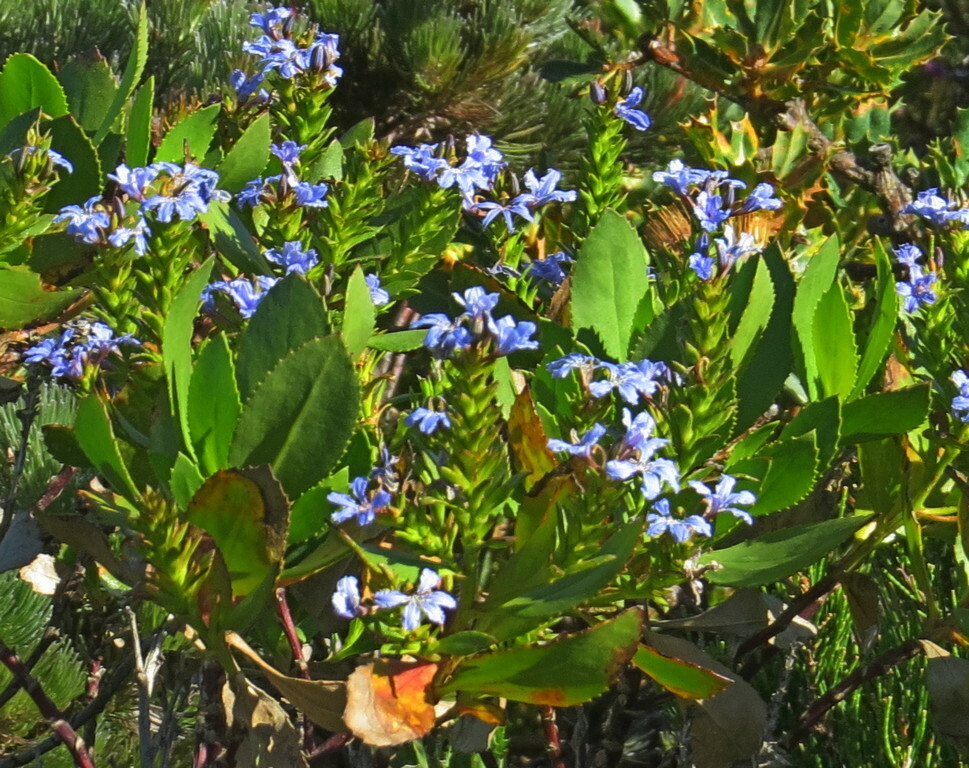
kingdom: Plantae
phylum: Tracheophyta
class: Magnoliopsida
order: Asterales
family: Goodeniaceae
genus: Scaevola
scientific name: Scaevola crassifolia
